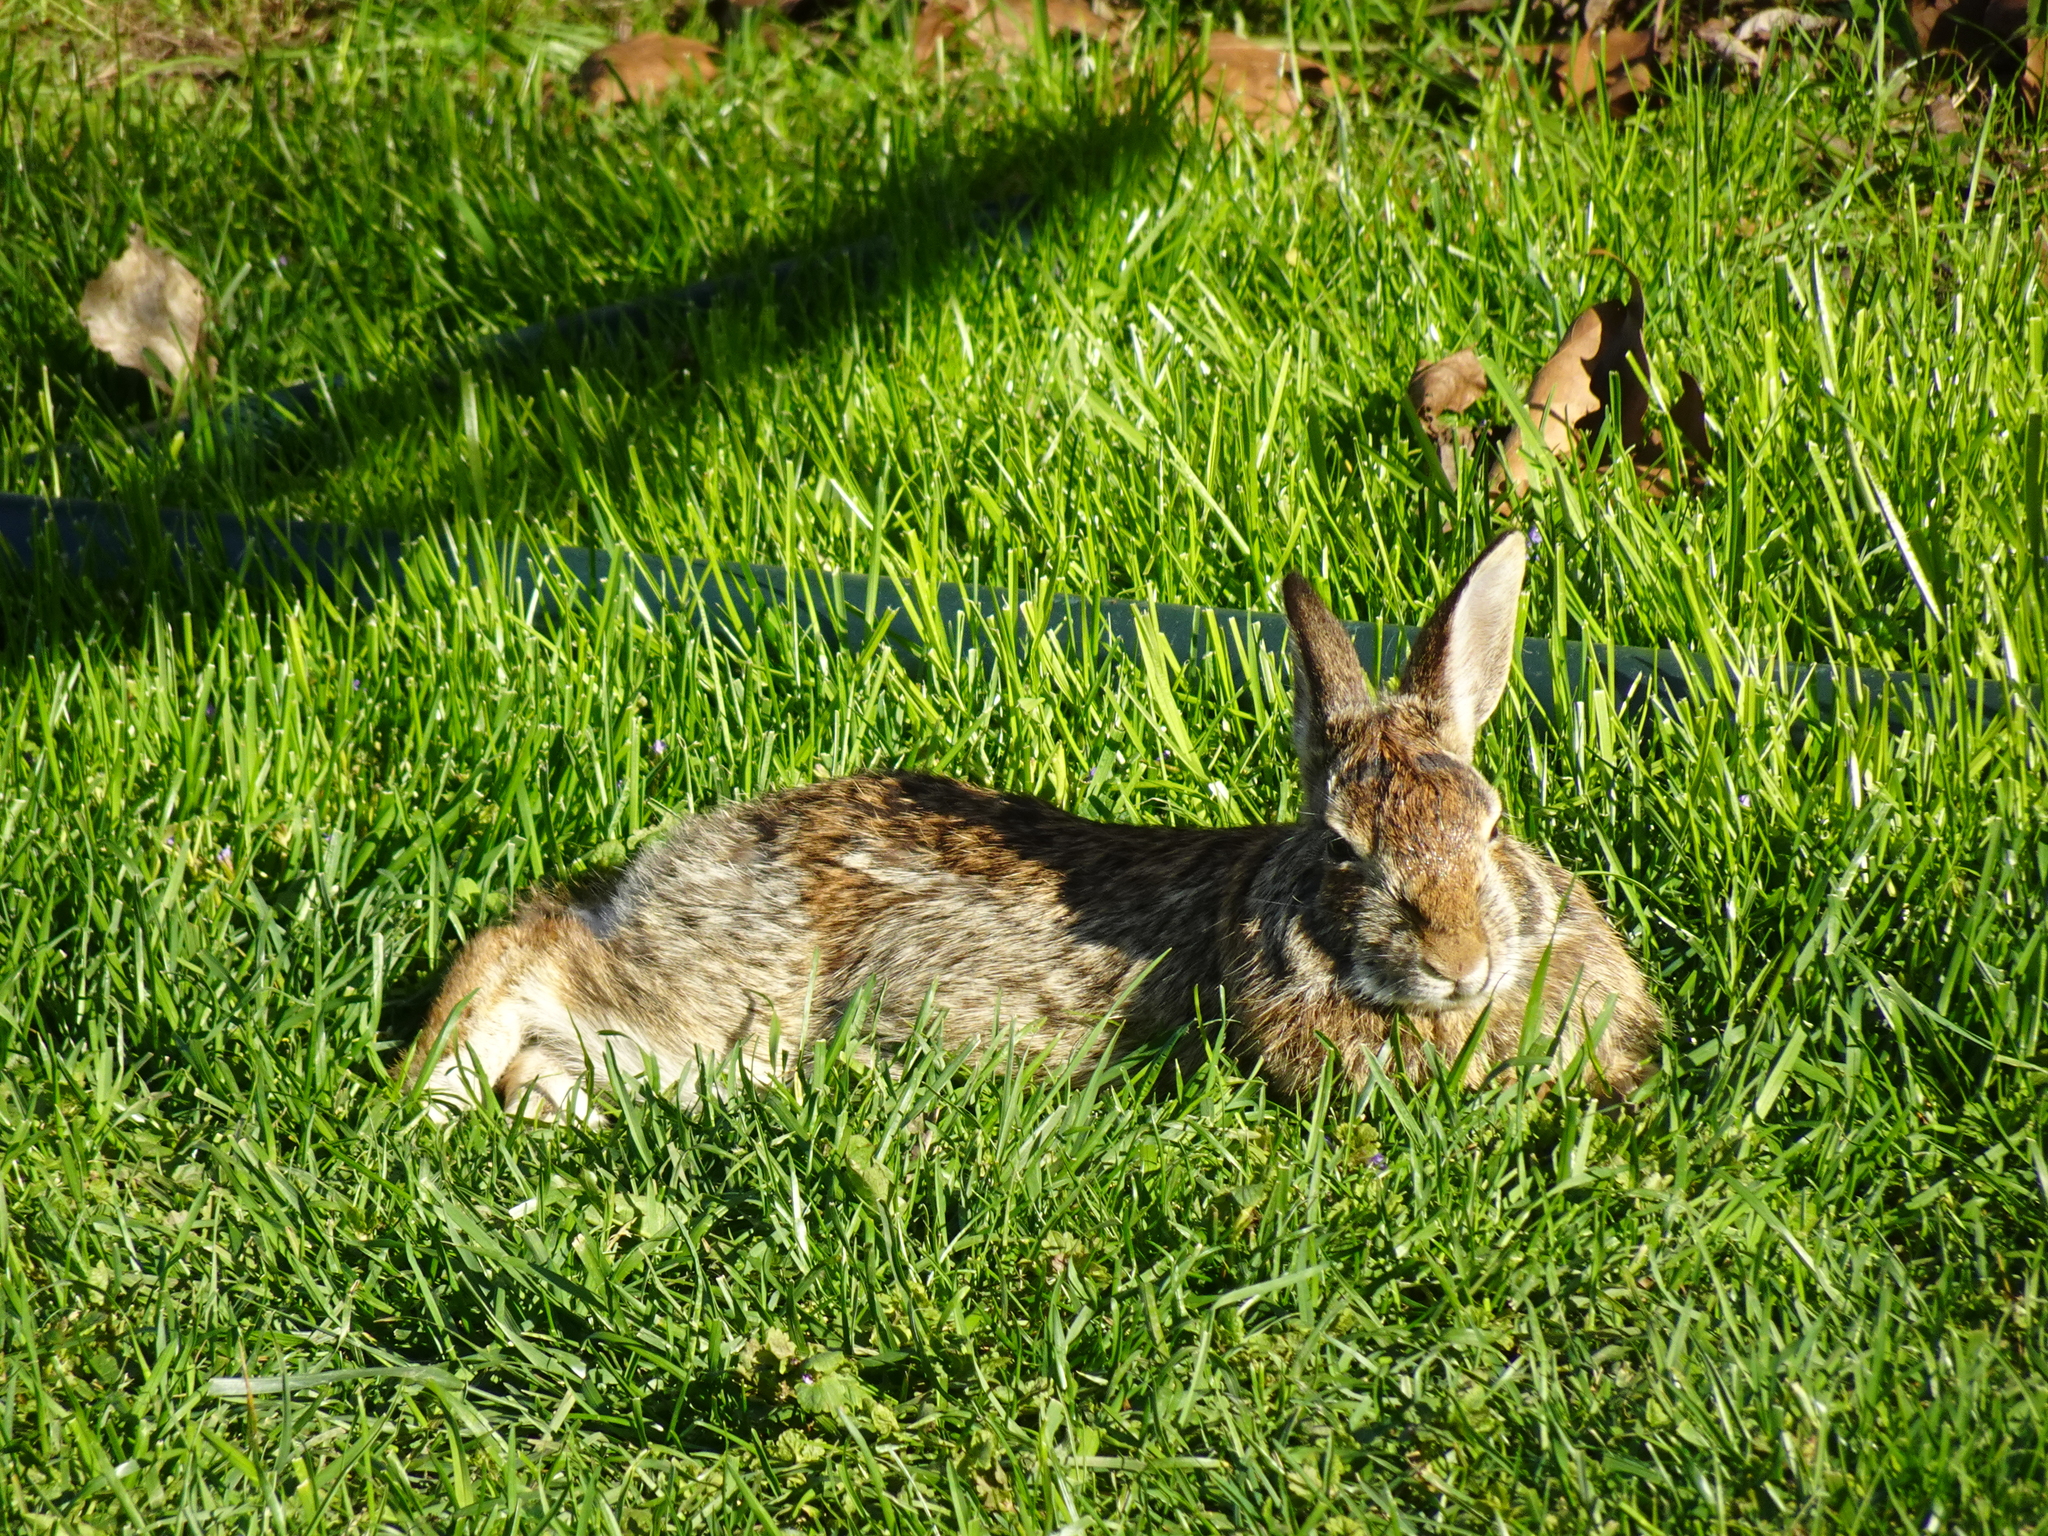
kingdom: Animalia
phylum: Chordata
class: Mammalia
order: Lagomorpha
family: Leporidae
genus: Sylvilagus
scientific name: Sylvilagus floridanus
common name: Eastern cottontail
